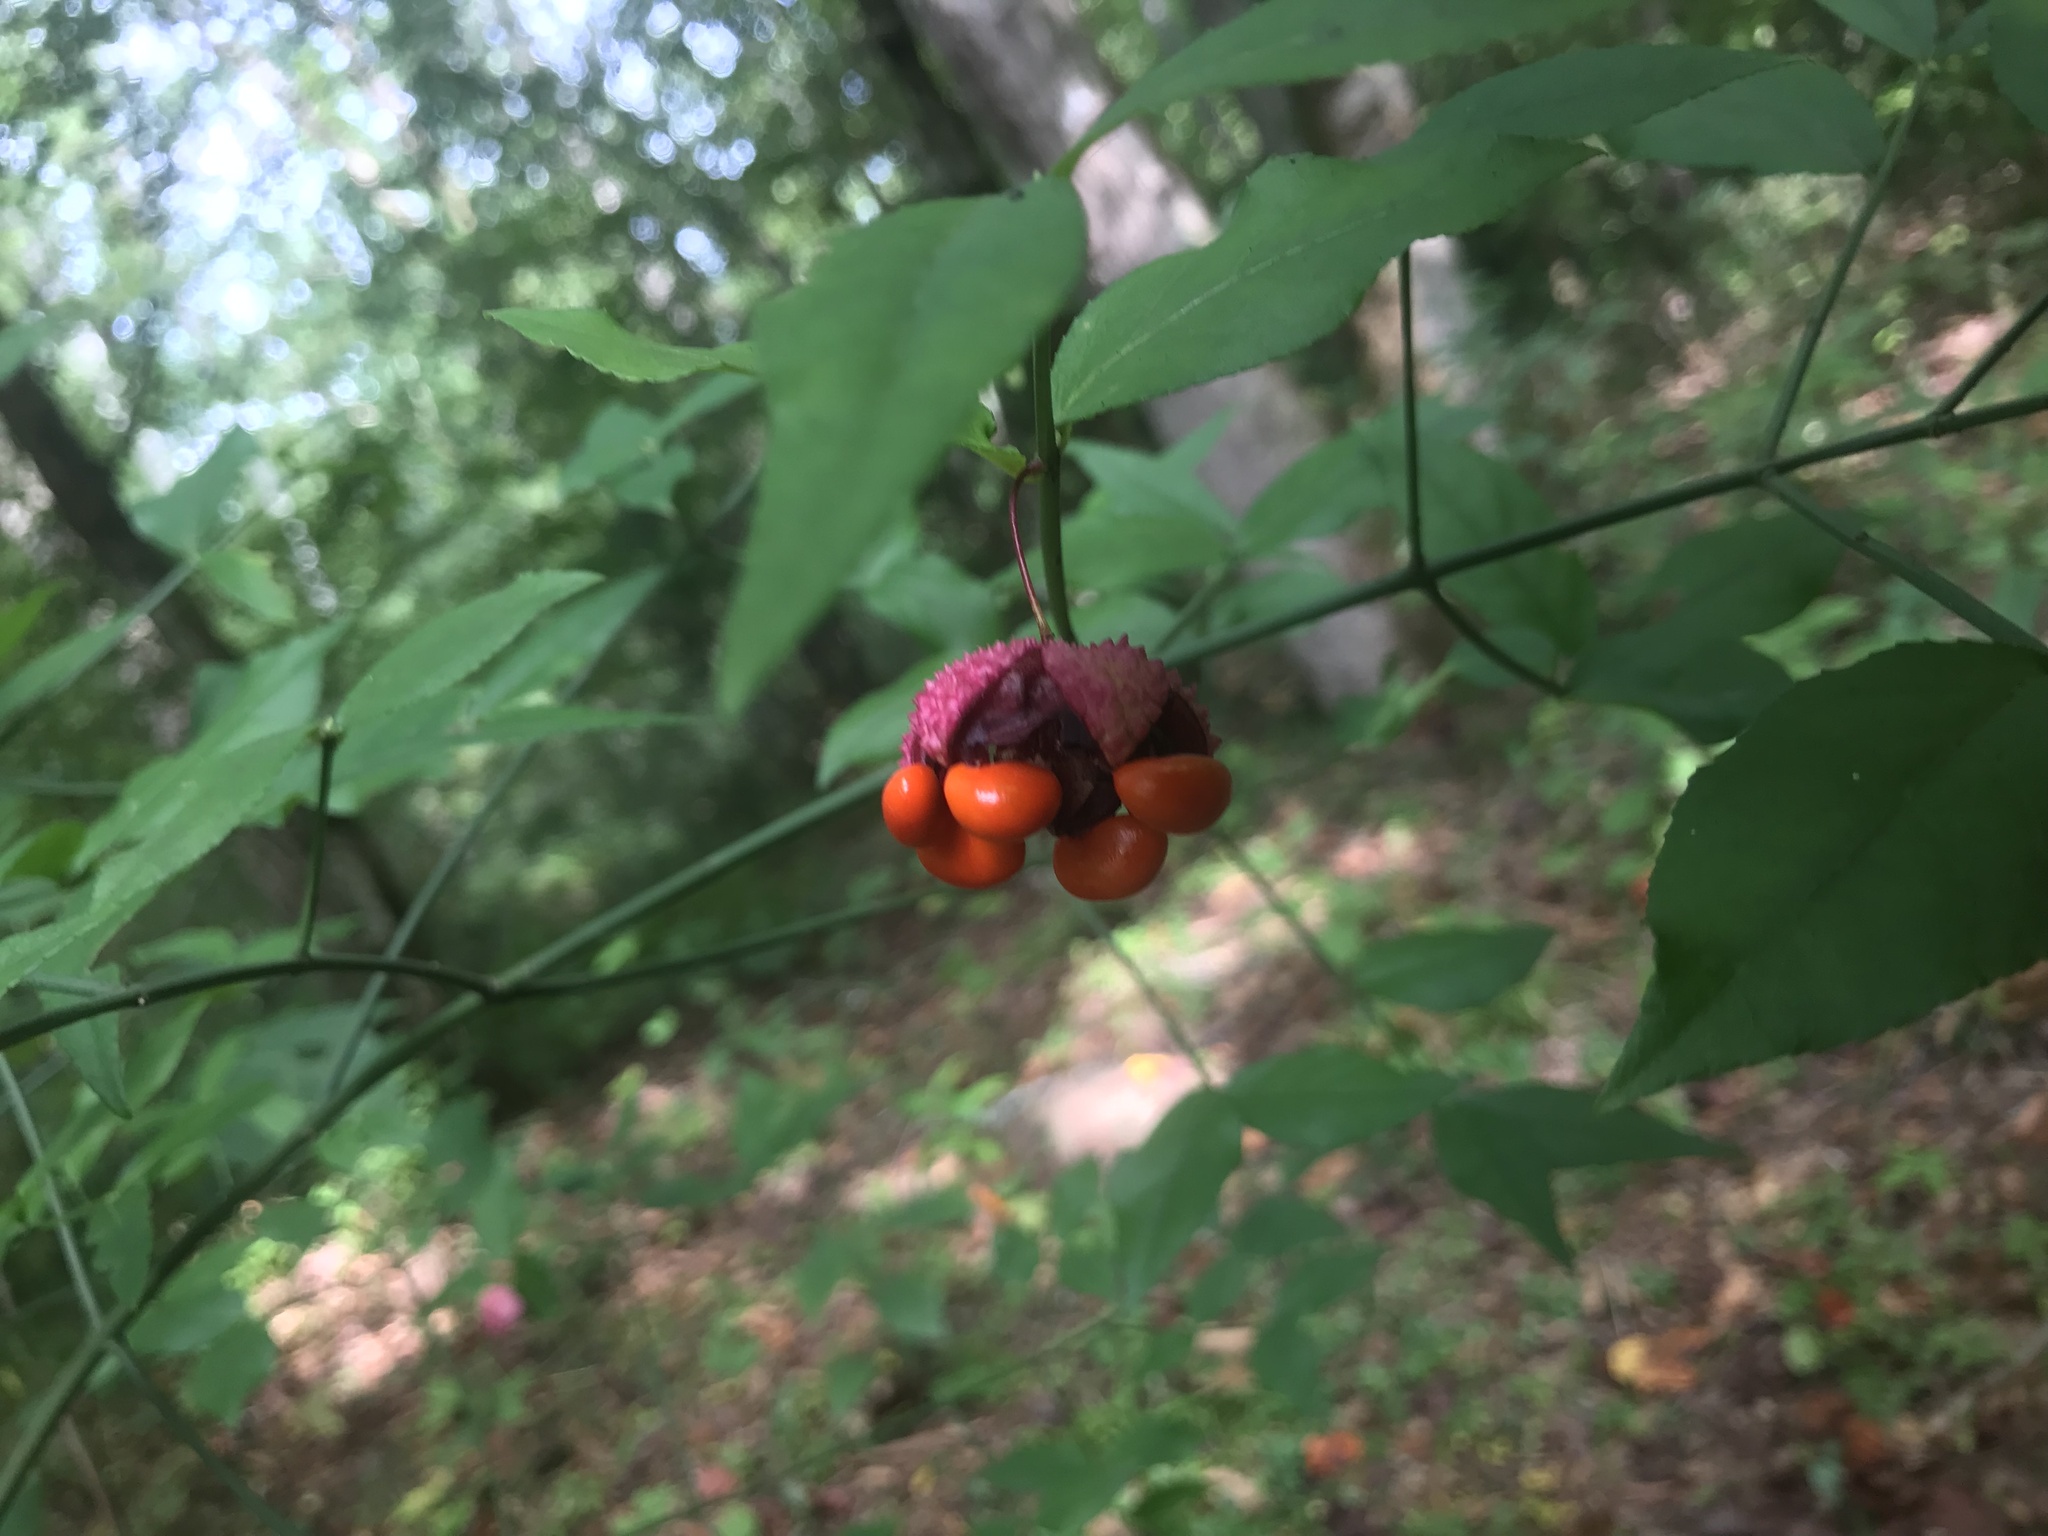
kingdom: Plantae
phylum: Tracheophyta
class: Magnoliopsida
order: Celastrales
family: Celastraceae
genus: Euonymus
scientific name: Euonymus americanus
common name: Bursting-heart
